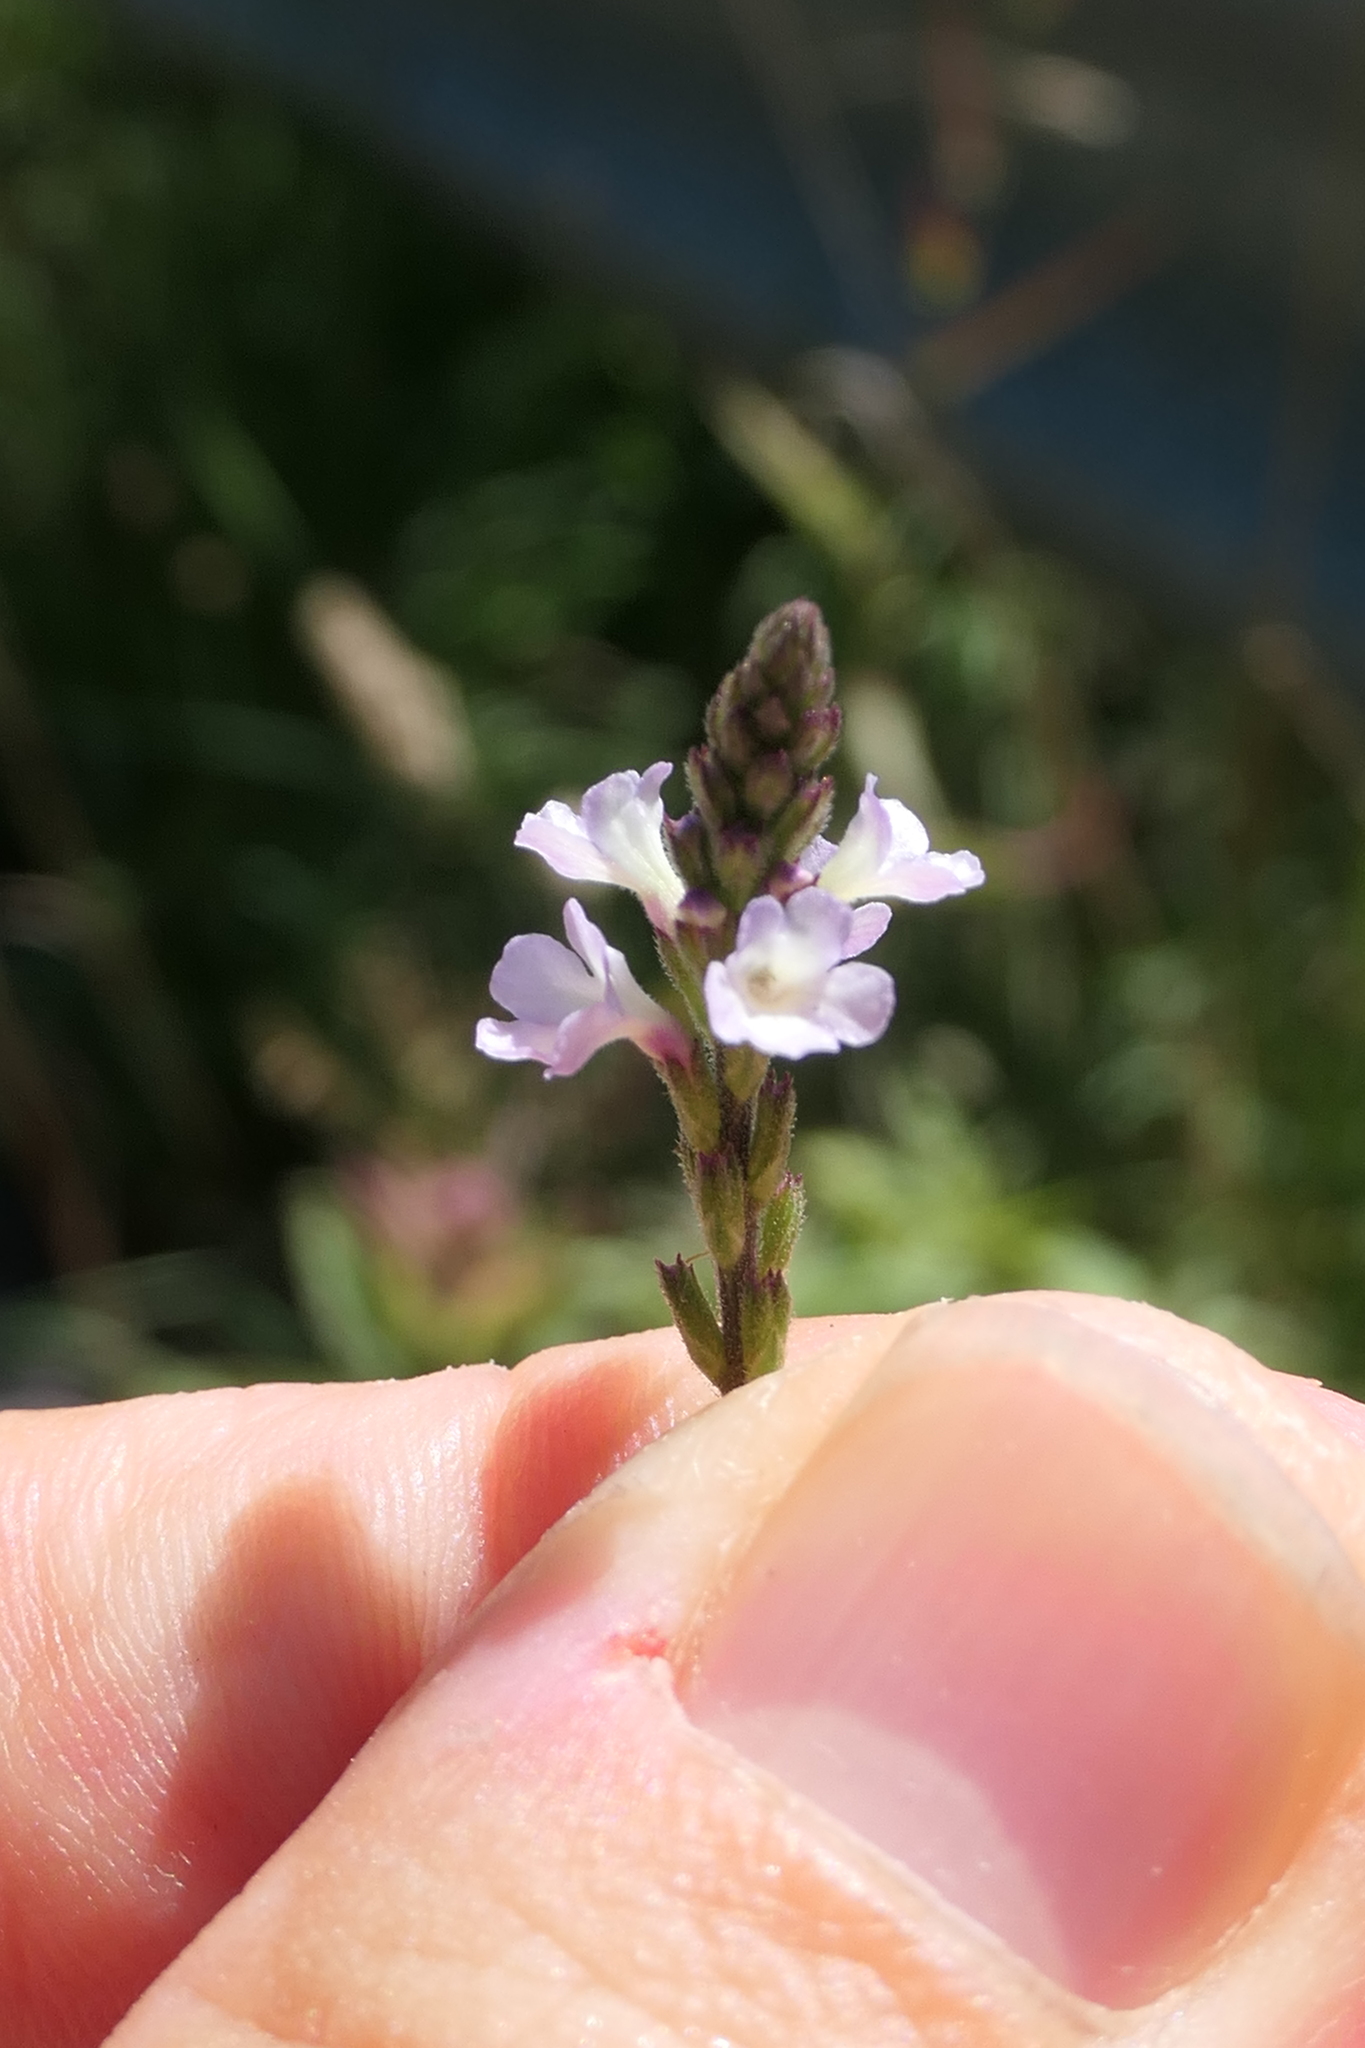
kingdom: Plantae
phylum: Tracheophyta
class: Magnoliopsida
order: Lamiales
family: Verbenaceae
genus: Verbena
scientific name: Verbena officinalis
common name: Vervain
